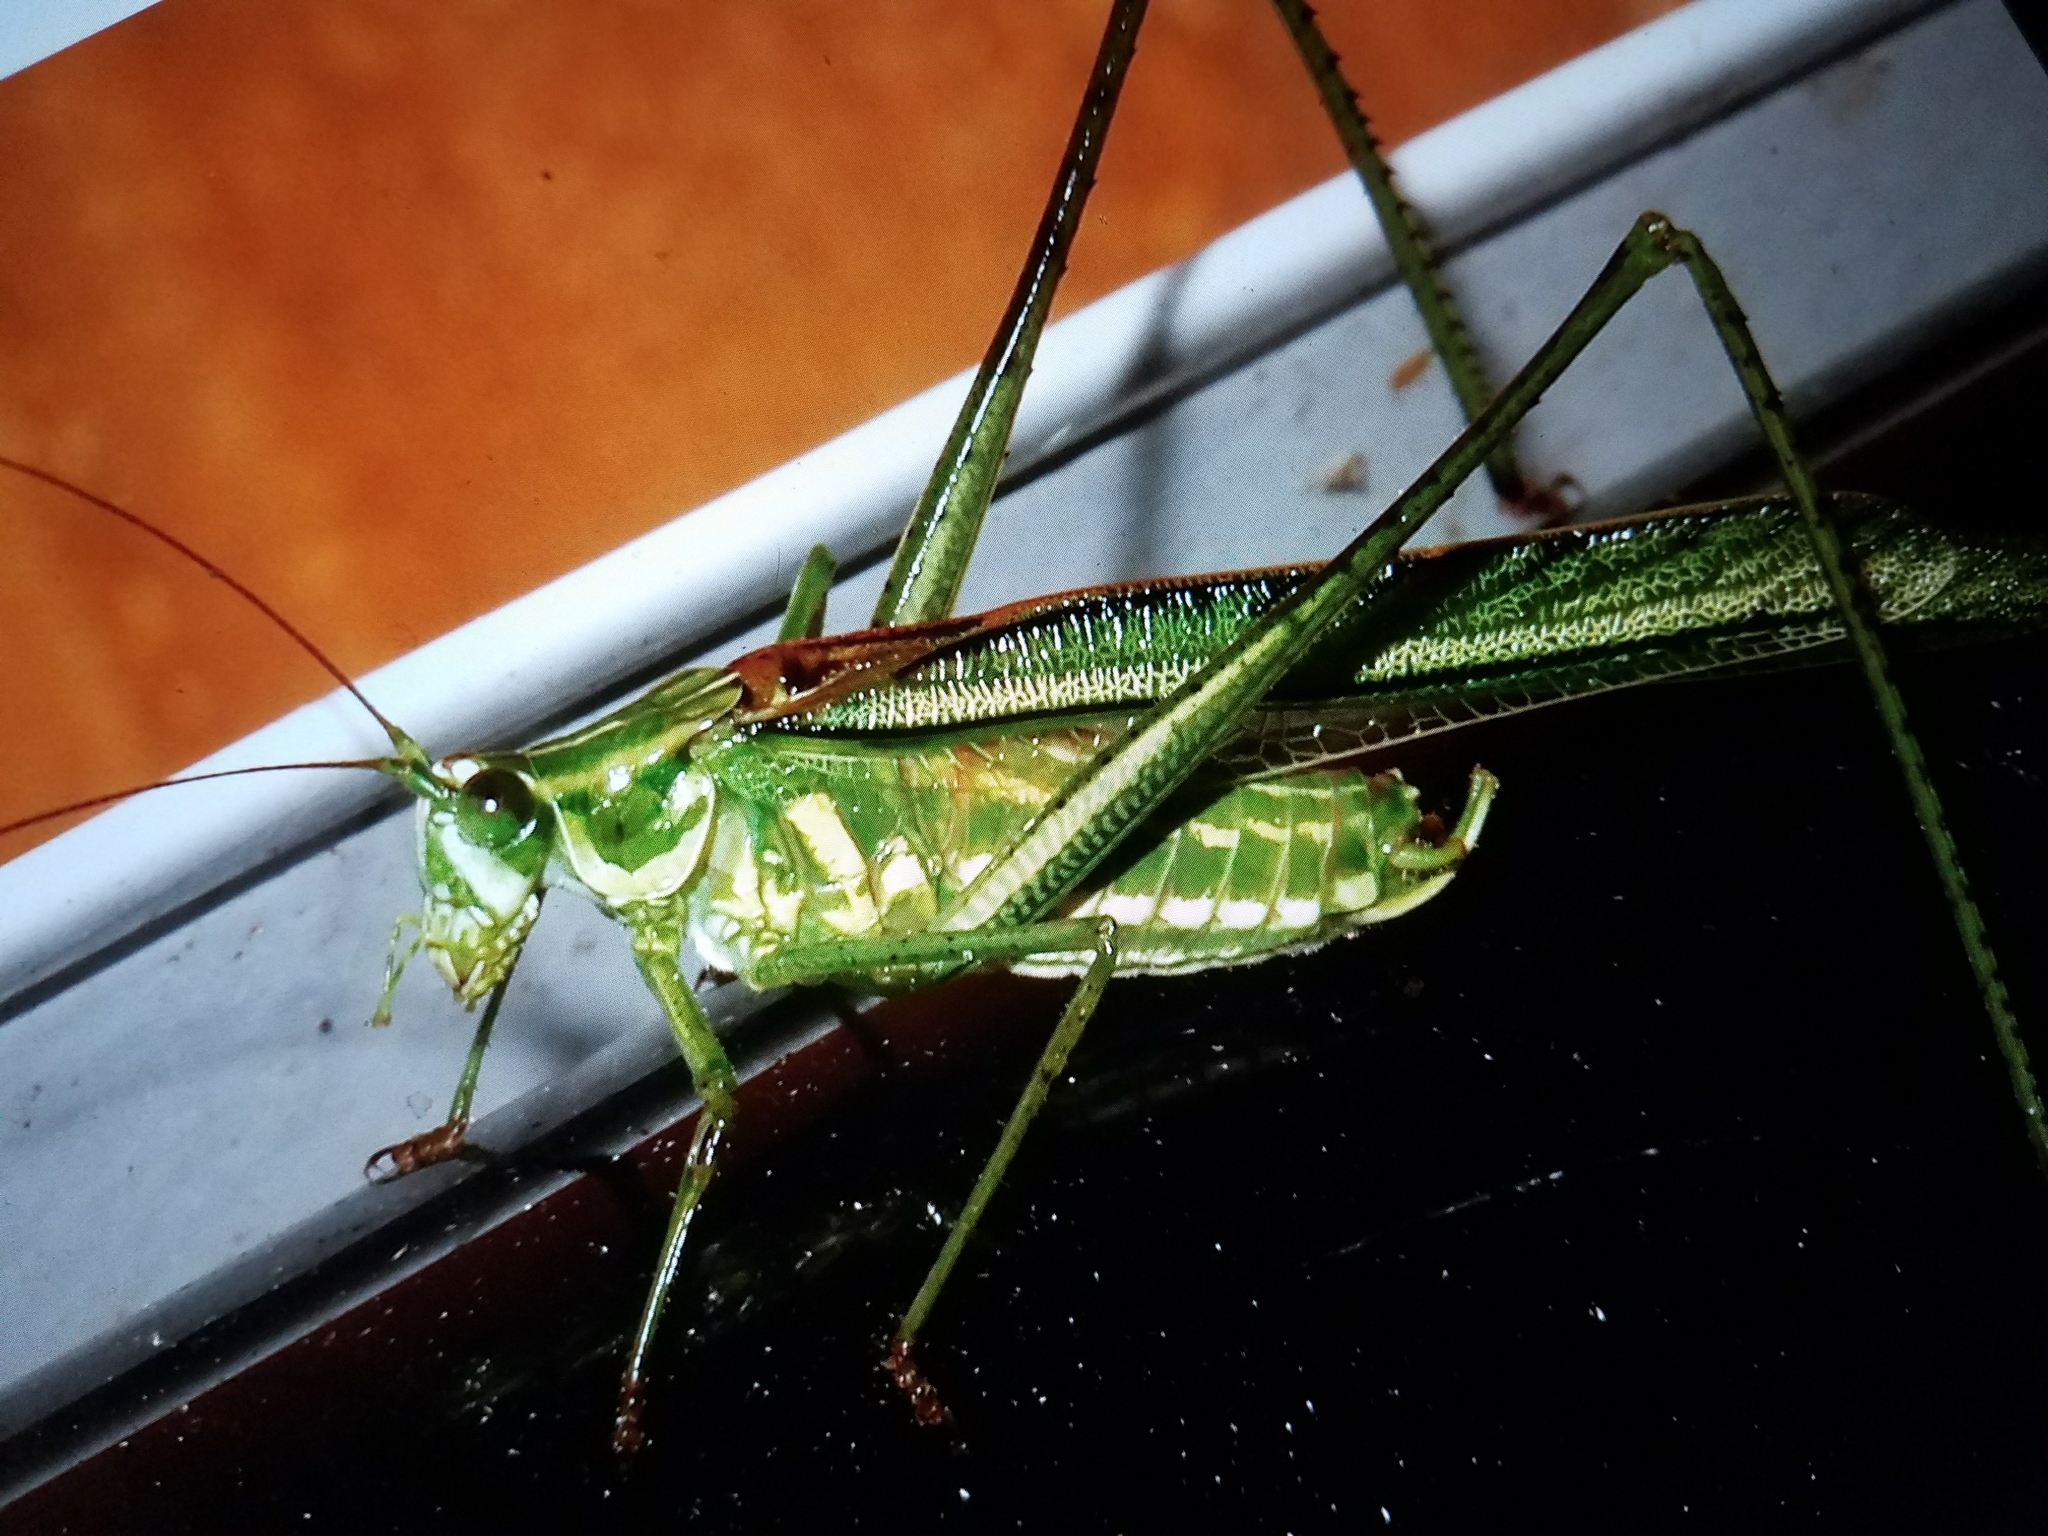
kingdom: Animalia
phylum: Arthropoda
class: Insecta
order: Orthoptera
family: Tettigoniidae
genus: Inscudderia
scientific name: Inscudderia walkeri
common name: Eastern cypress katydid
